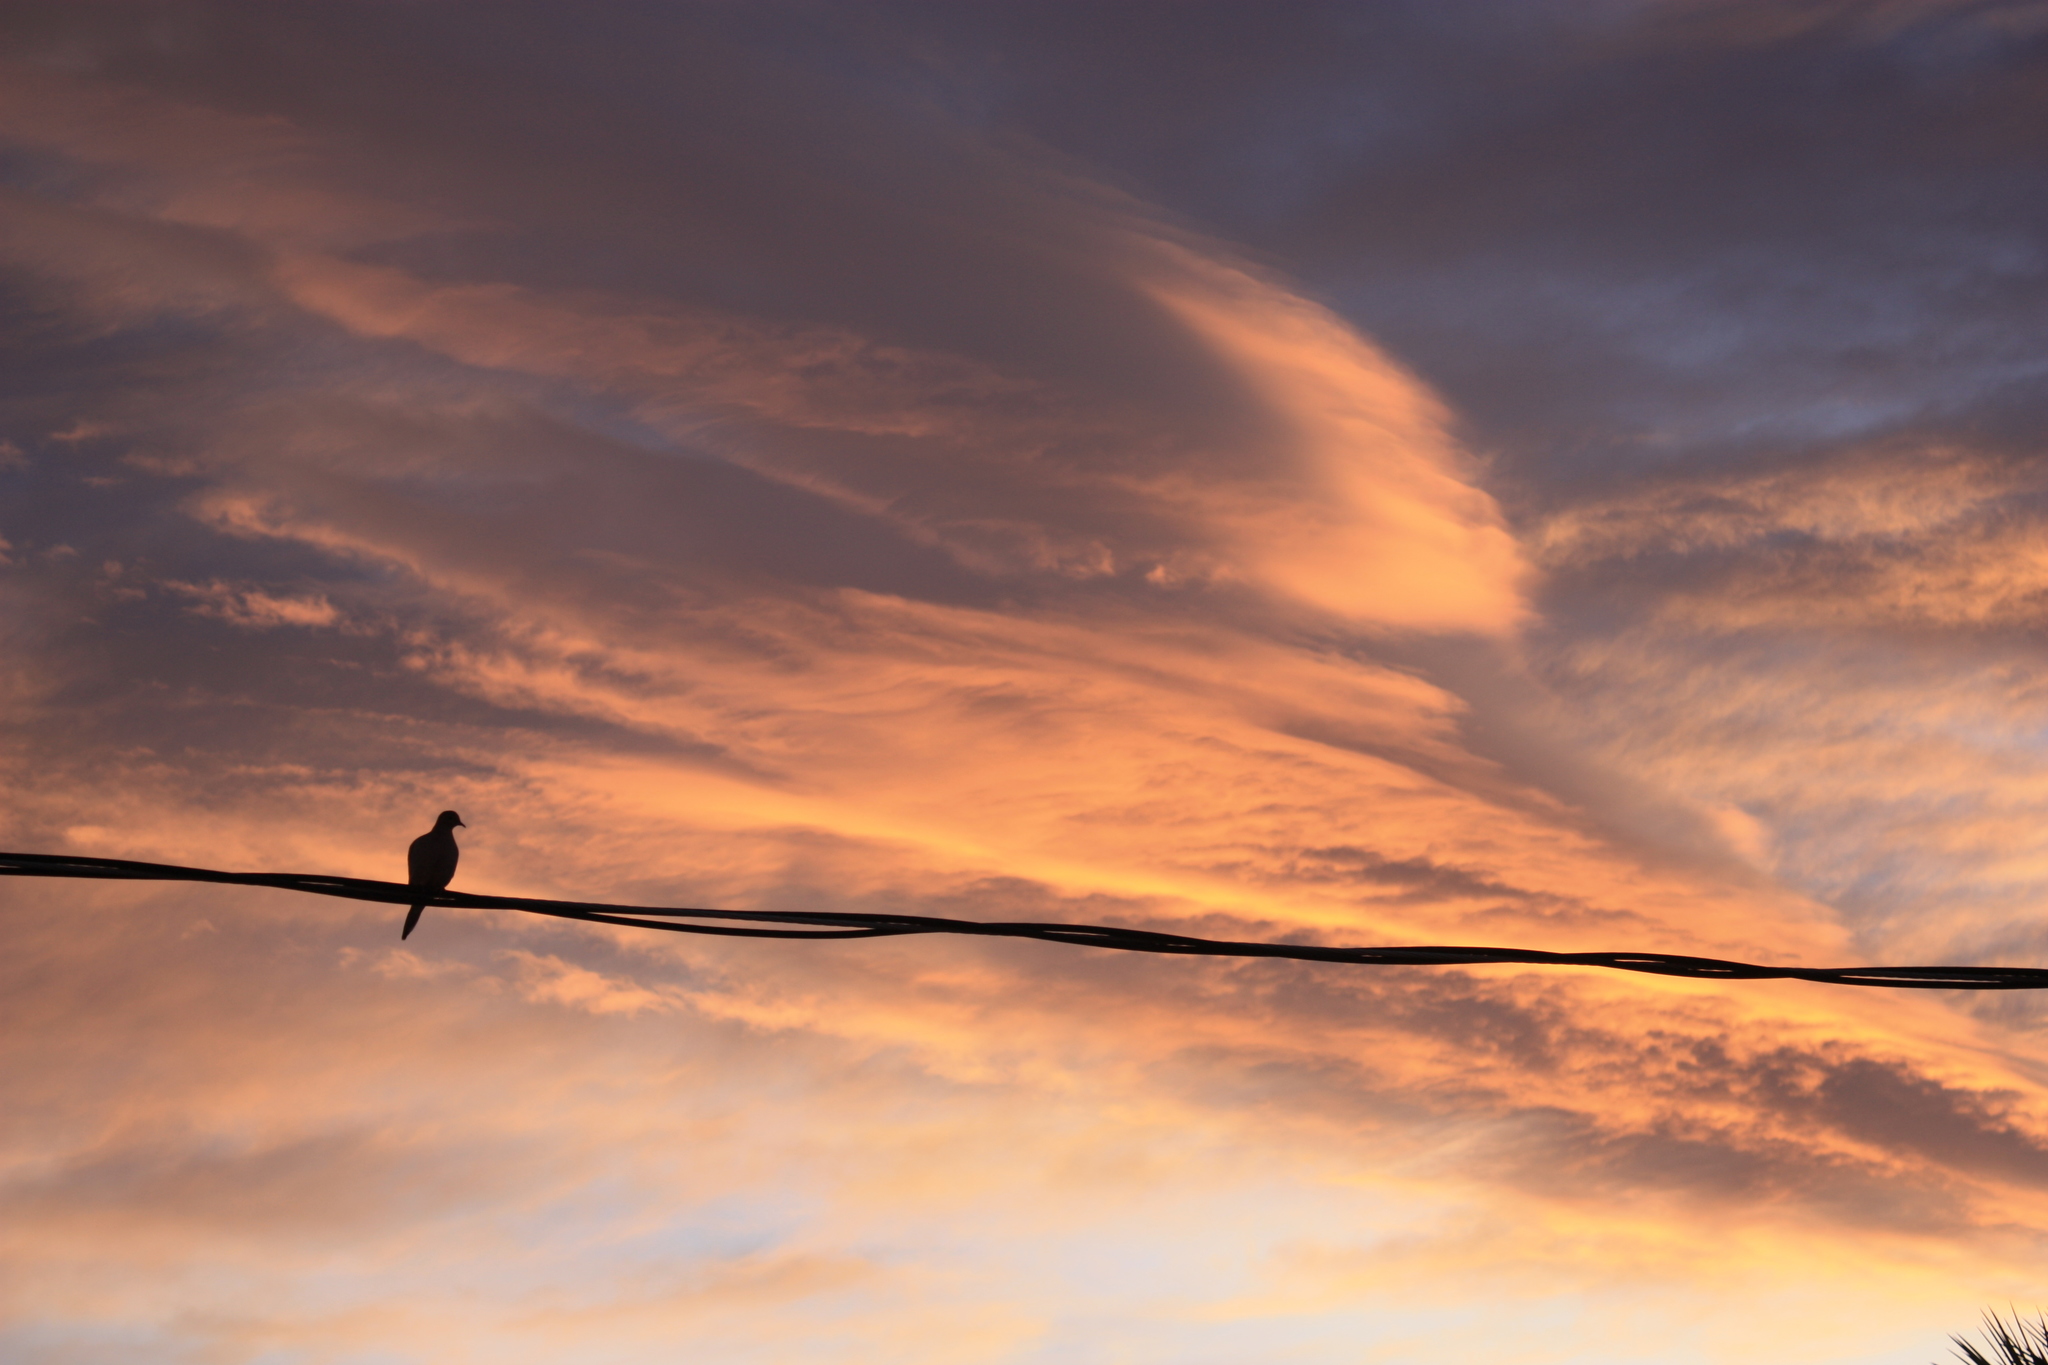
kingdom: Animalia
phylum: Chordata
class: Aves
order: Columbiformes
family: Columbidae
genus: Zenaida
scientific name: Zenaida macroura
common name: Mourning dove
